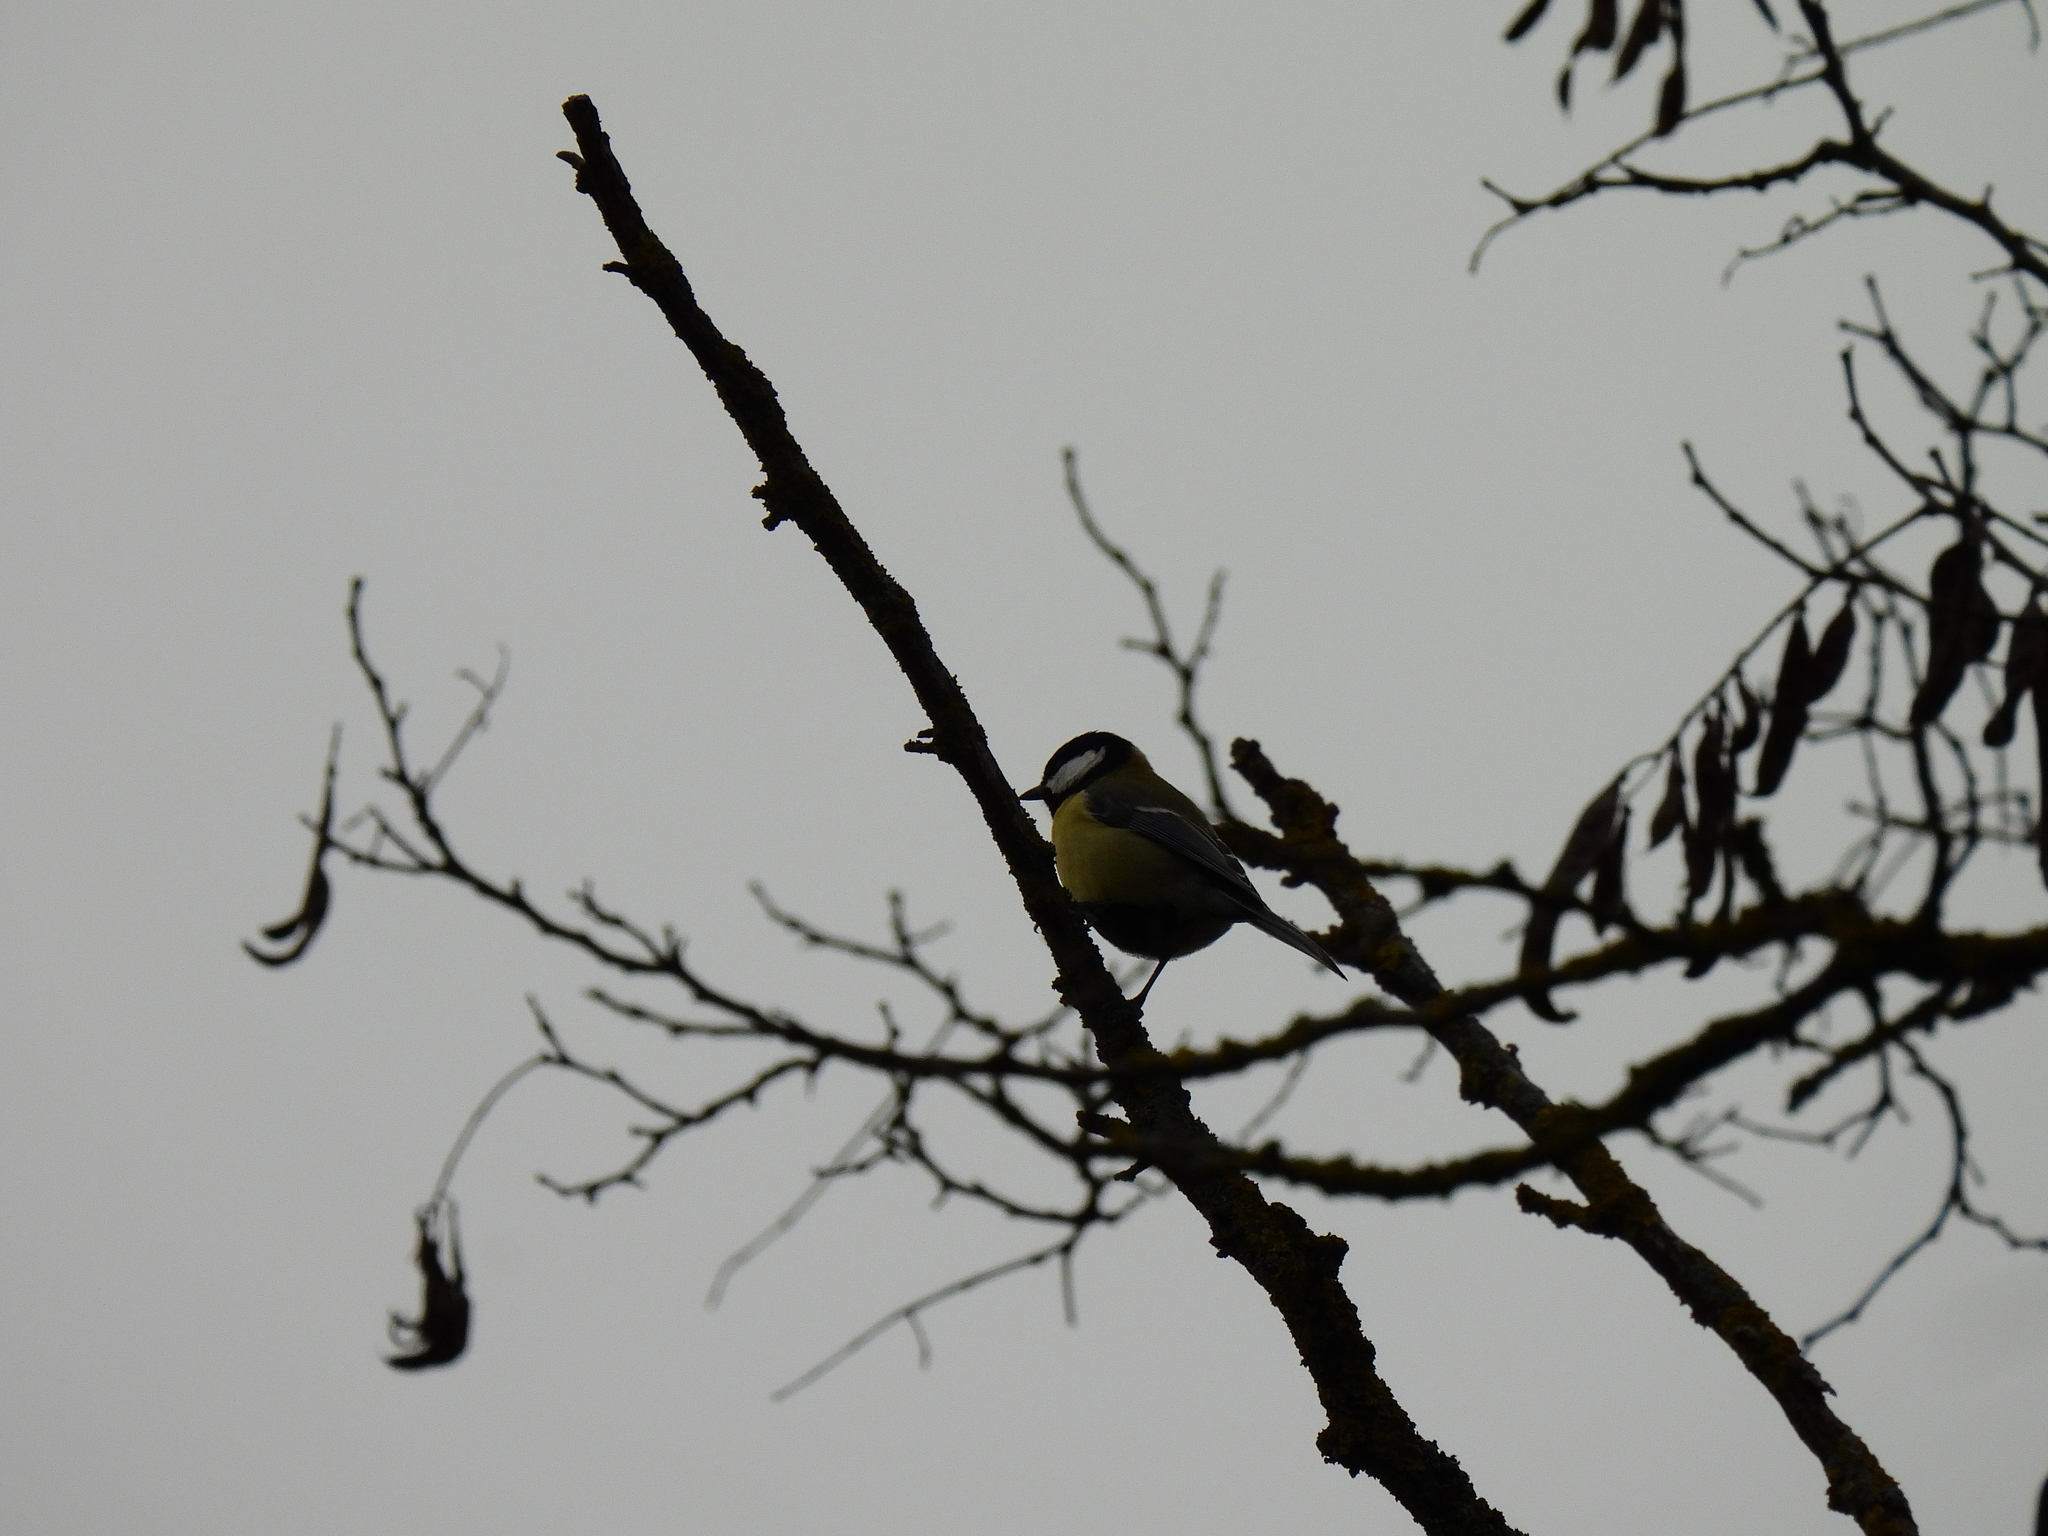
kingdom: Animalia
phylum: Chordata
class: Aves
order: Passeriformes
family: Paridae
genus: Cyanistes
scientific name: Cyanistes caeruleus
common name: Eurasian blue tit
